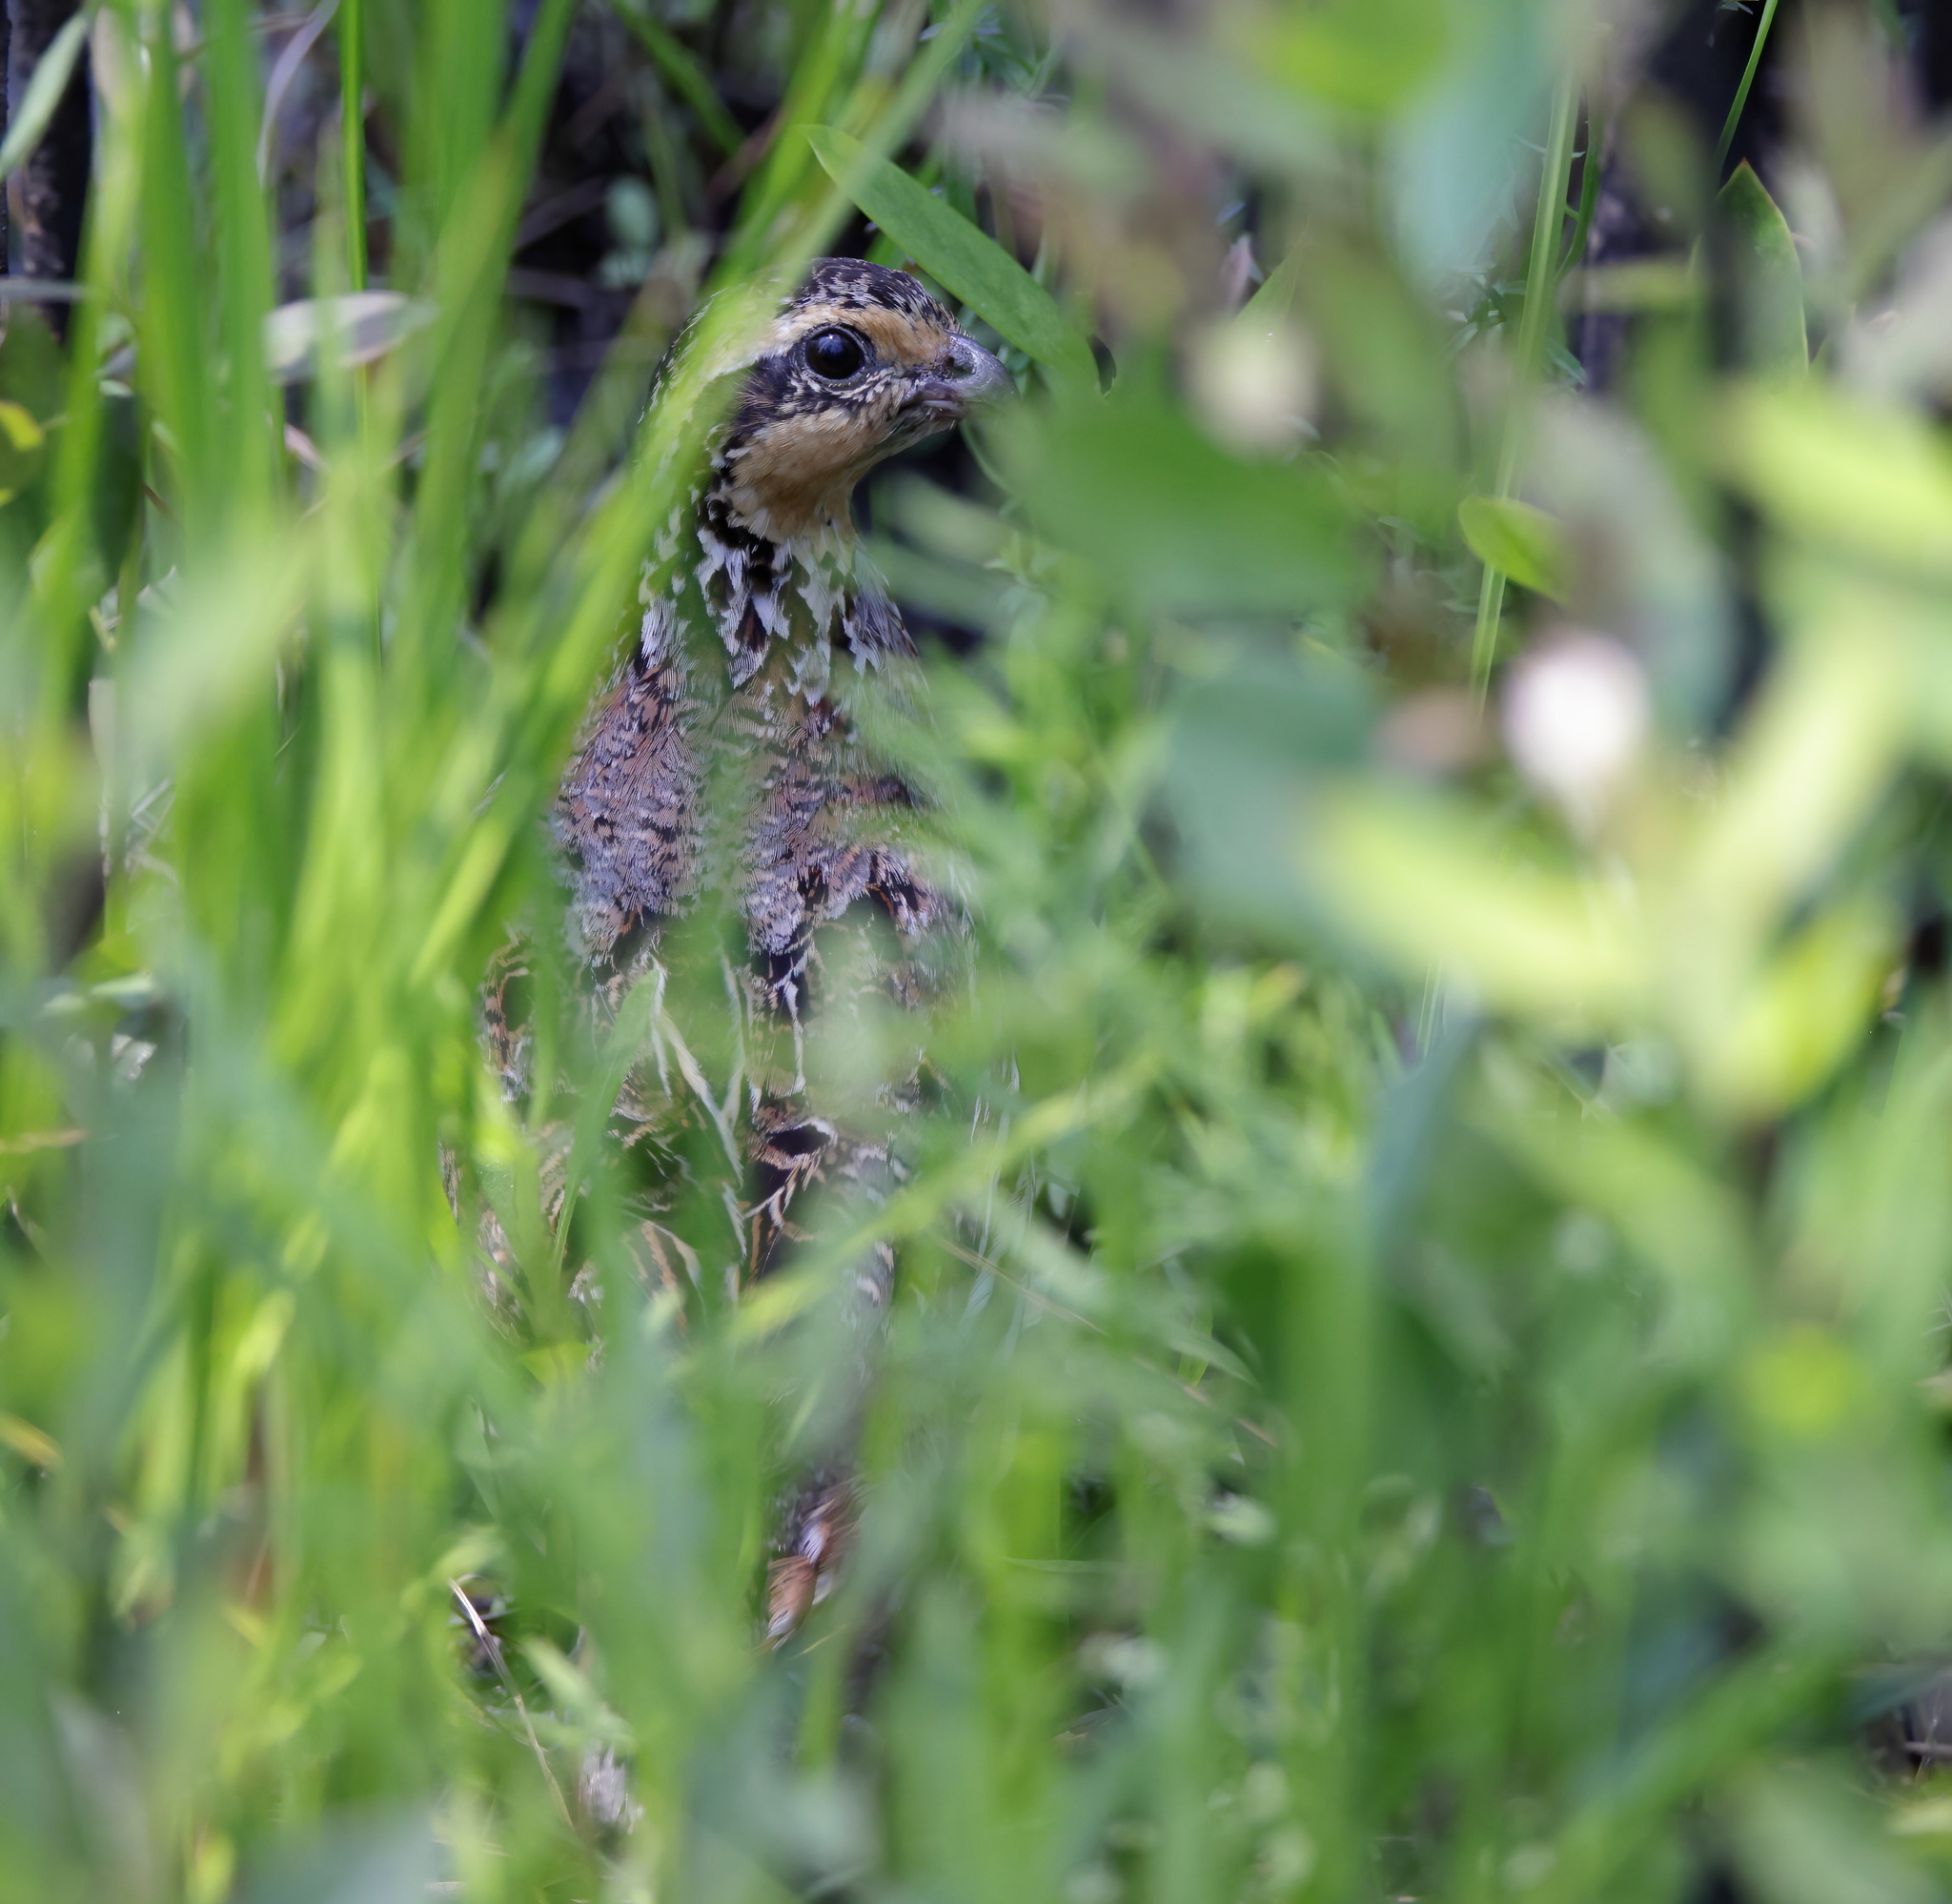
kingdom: Animalia
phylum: Chordata
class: Aves
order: Galliformes
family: Odontophoridae
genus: Colinus
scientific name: Colinus virginianus
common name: Northern bobwhite
